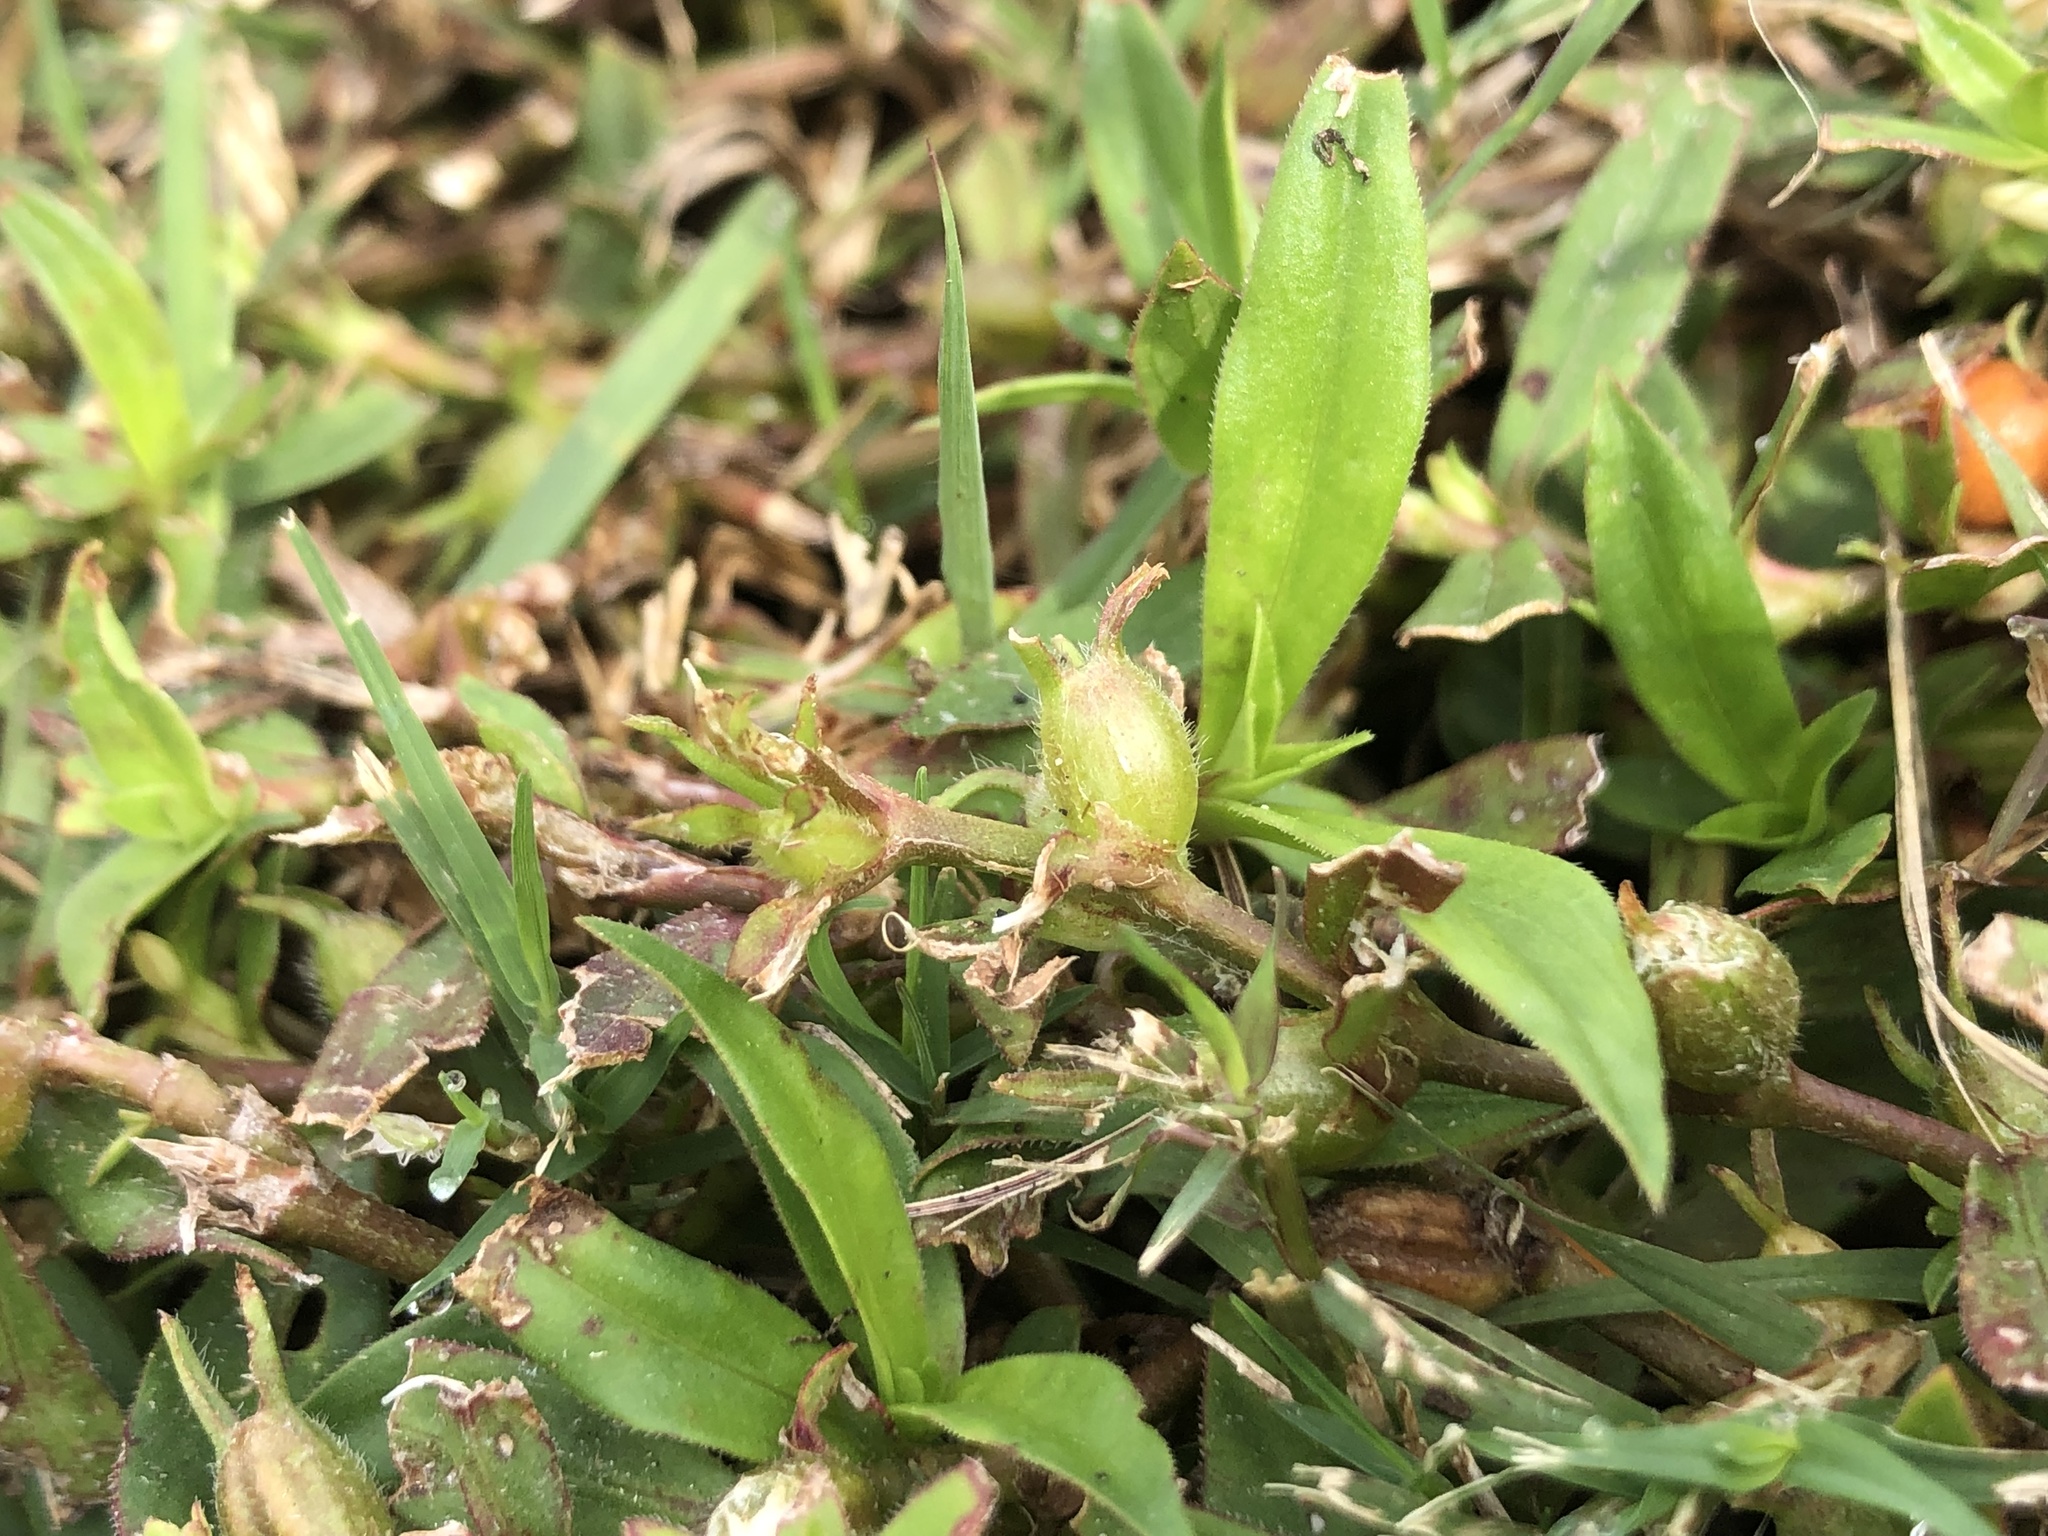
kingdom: Plantae
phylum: Tracheophyta
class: Magnoliopsida
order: Gentianales
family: Rubiaceae
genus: Diodia
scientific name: Diodia virginiana
